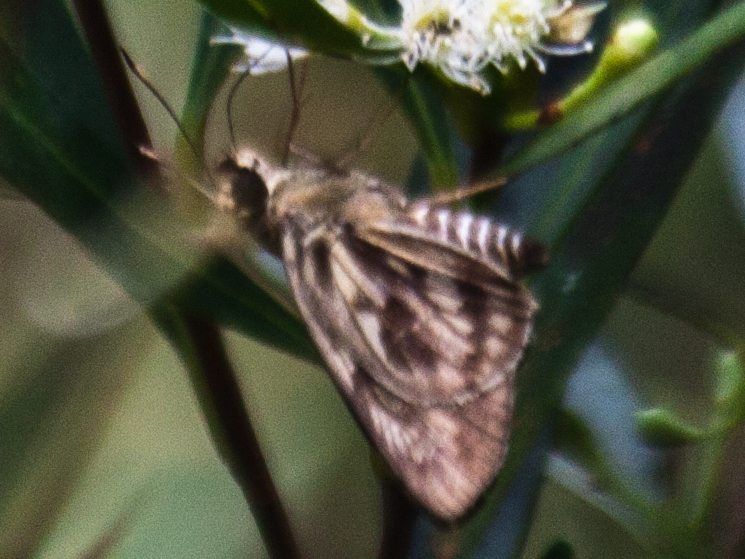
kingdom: Animalia
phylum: Arthropoda
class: Insecta
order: Lepidoptera
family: Hesperiidae
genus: Plastingia
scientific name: Plastingia naga
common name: Chequered lancer
